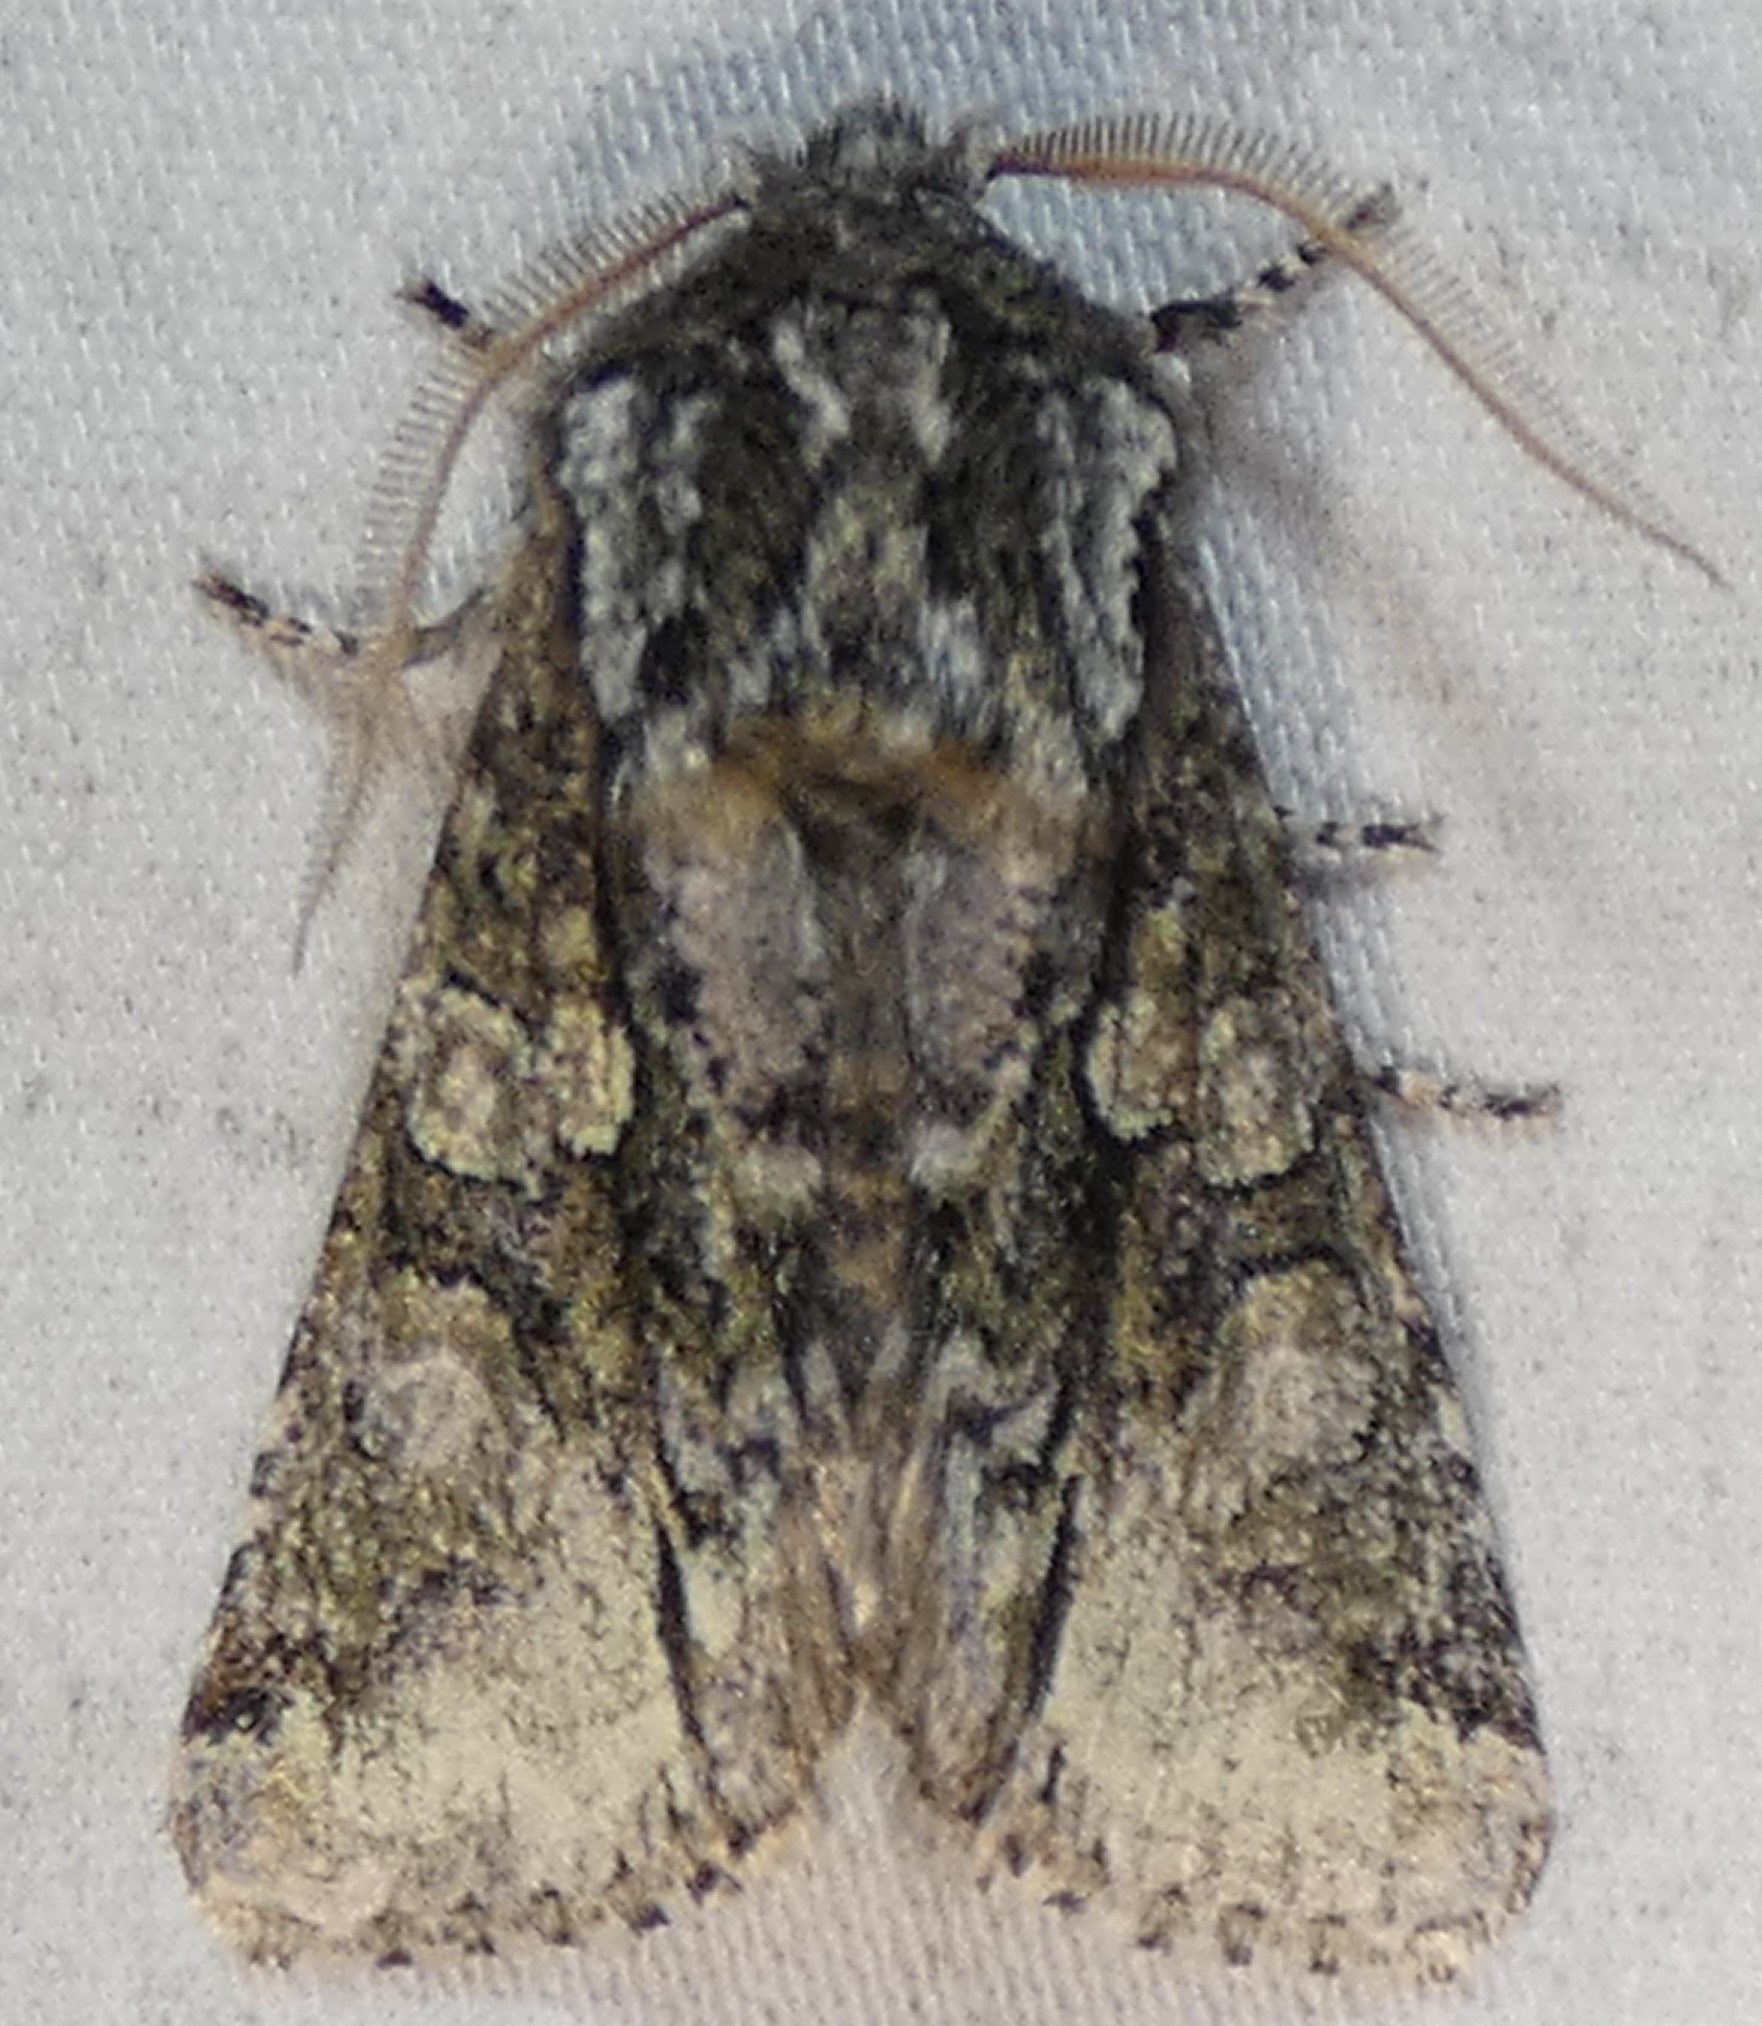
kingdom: Animalia
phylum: Arthropoda
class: Insecta
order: Lepidoptera
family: Noctuidae
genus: Psaphida
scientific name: Psaphida resumens
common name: Figure-eight sallow
